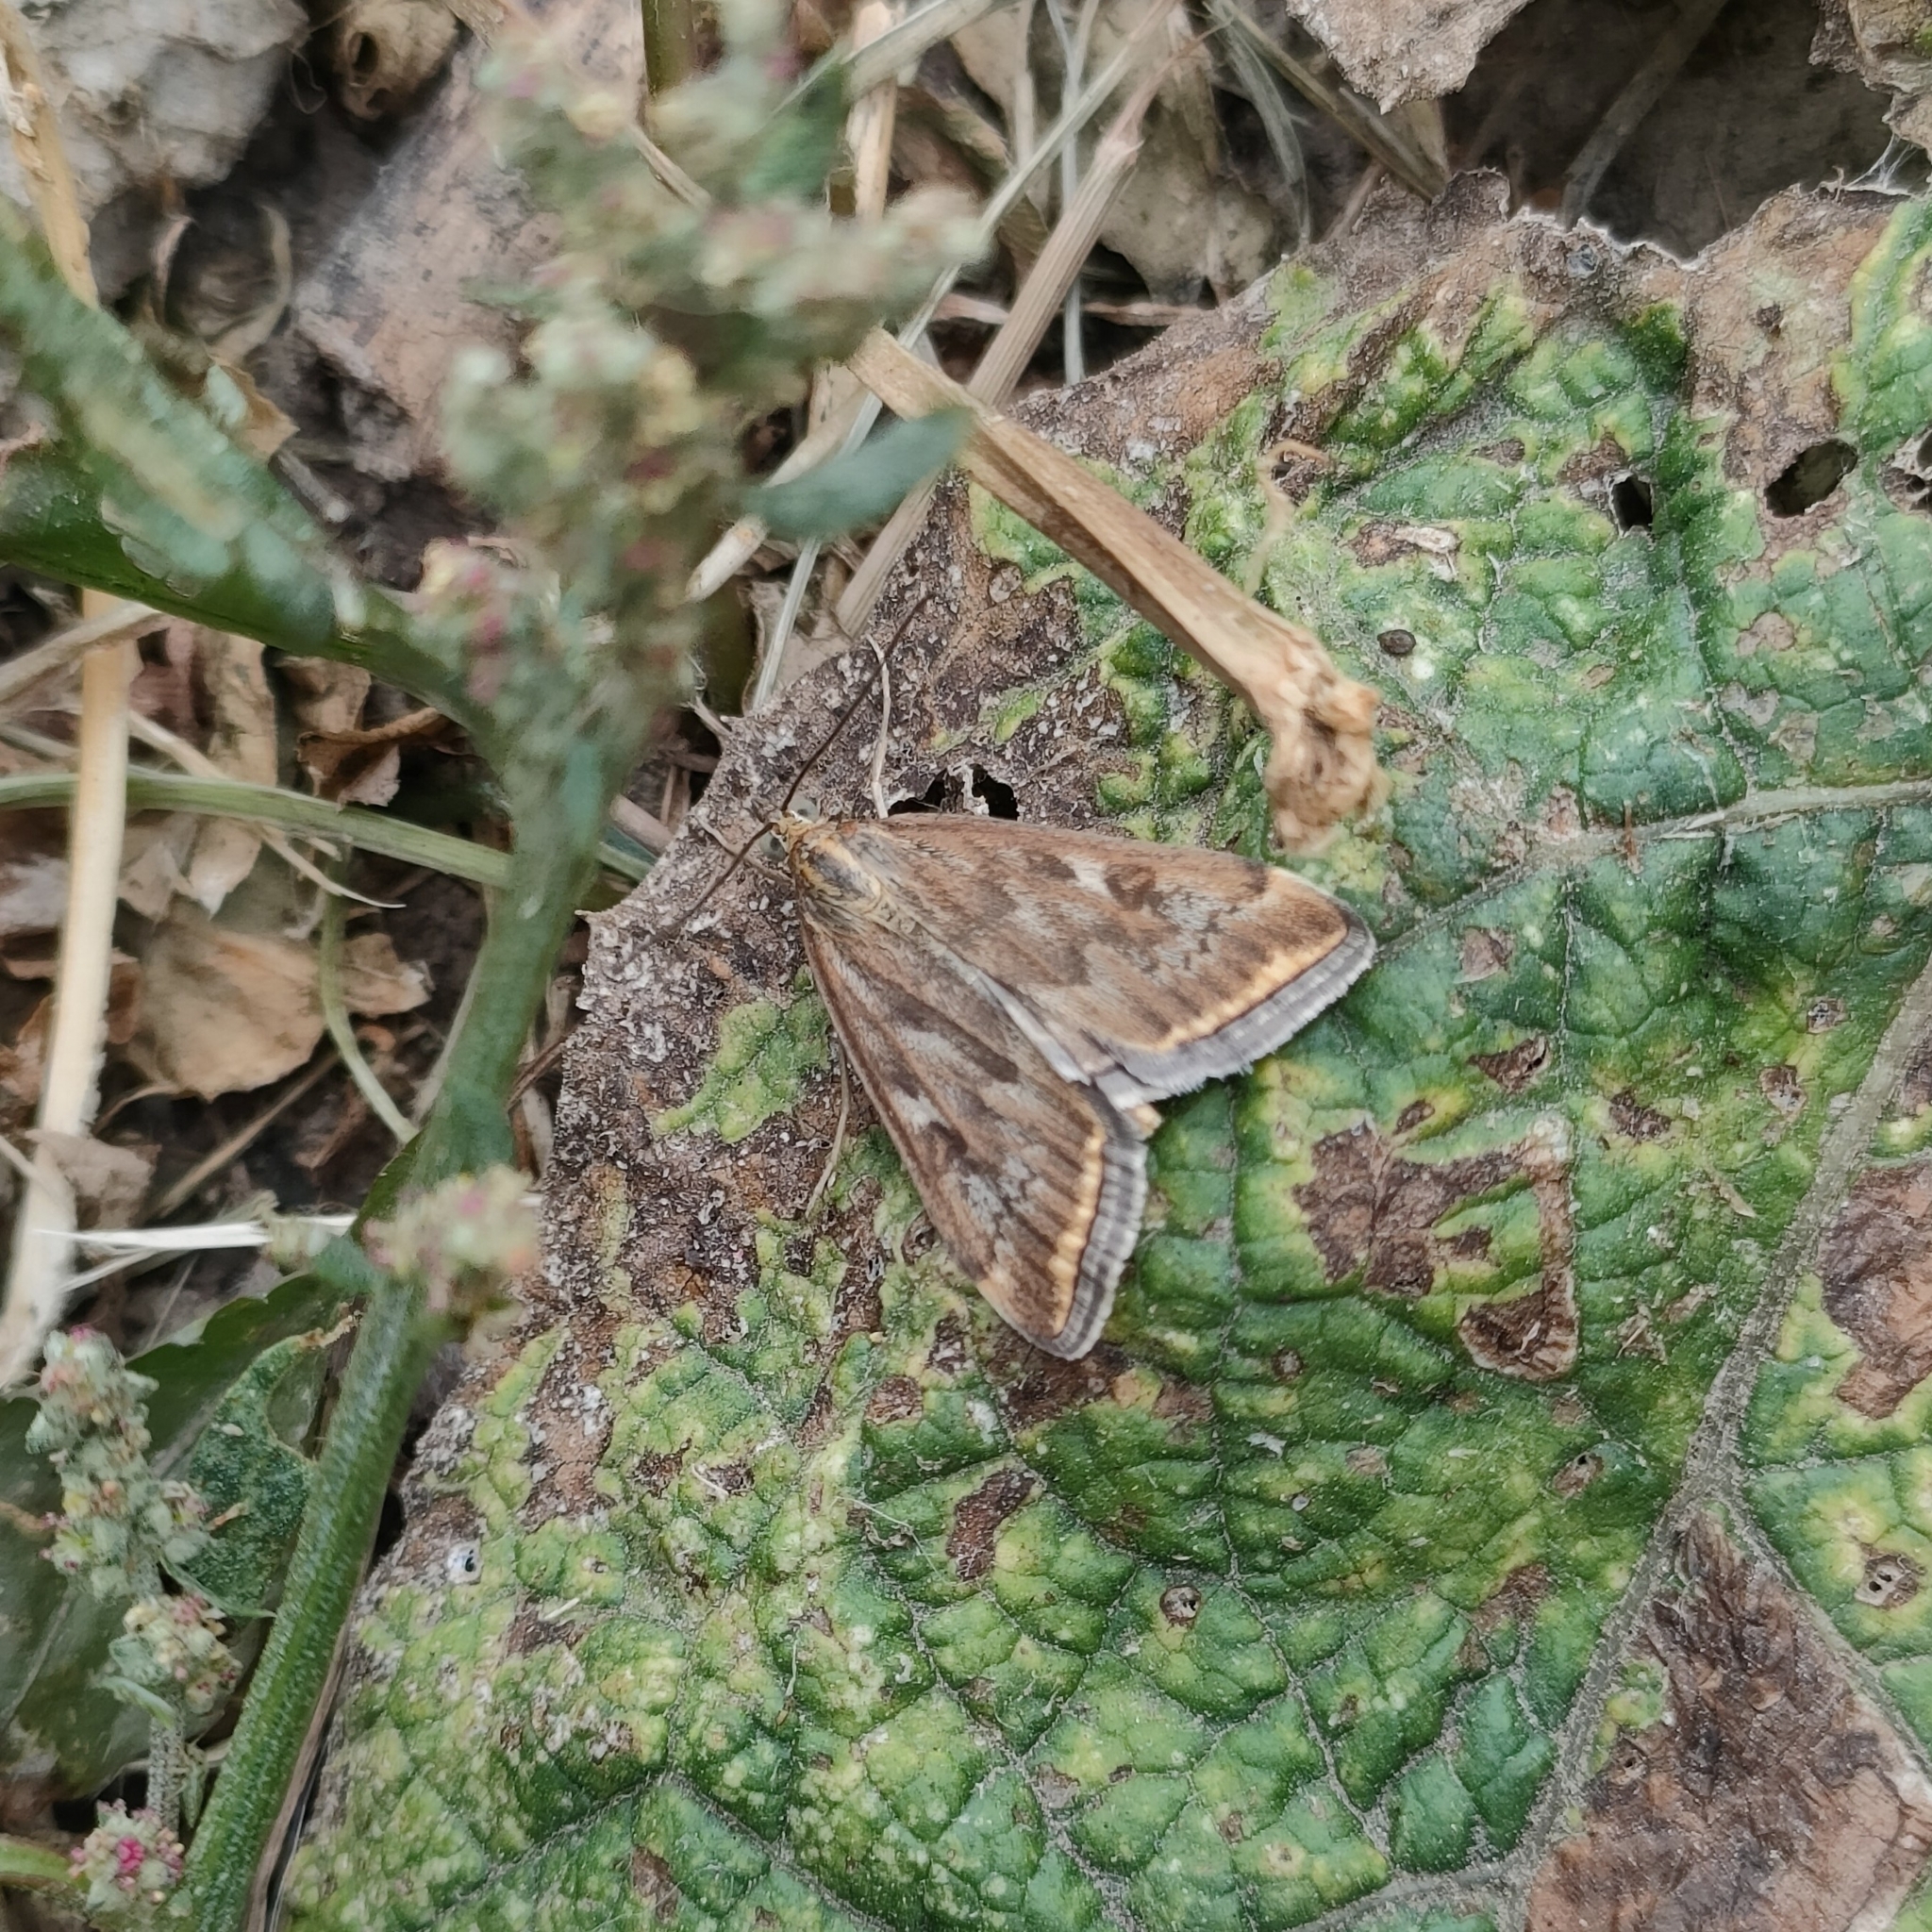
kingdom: Animalia
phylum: Arthropoda
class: Insecta
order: Lepidoptera
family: Crambidae
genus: Loxostege
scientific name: Loxostege sticticalis
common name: Crambid moth
